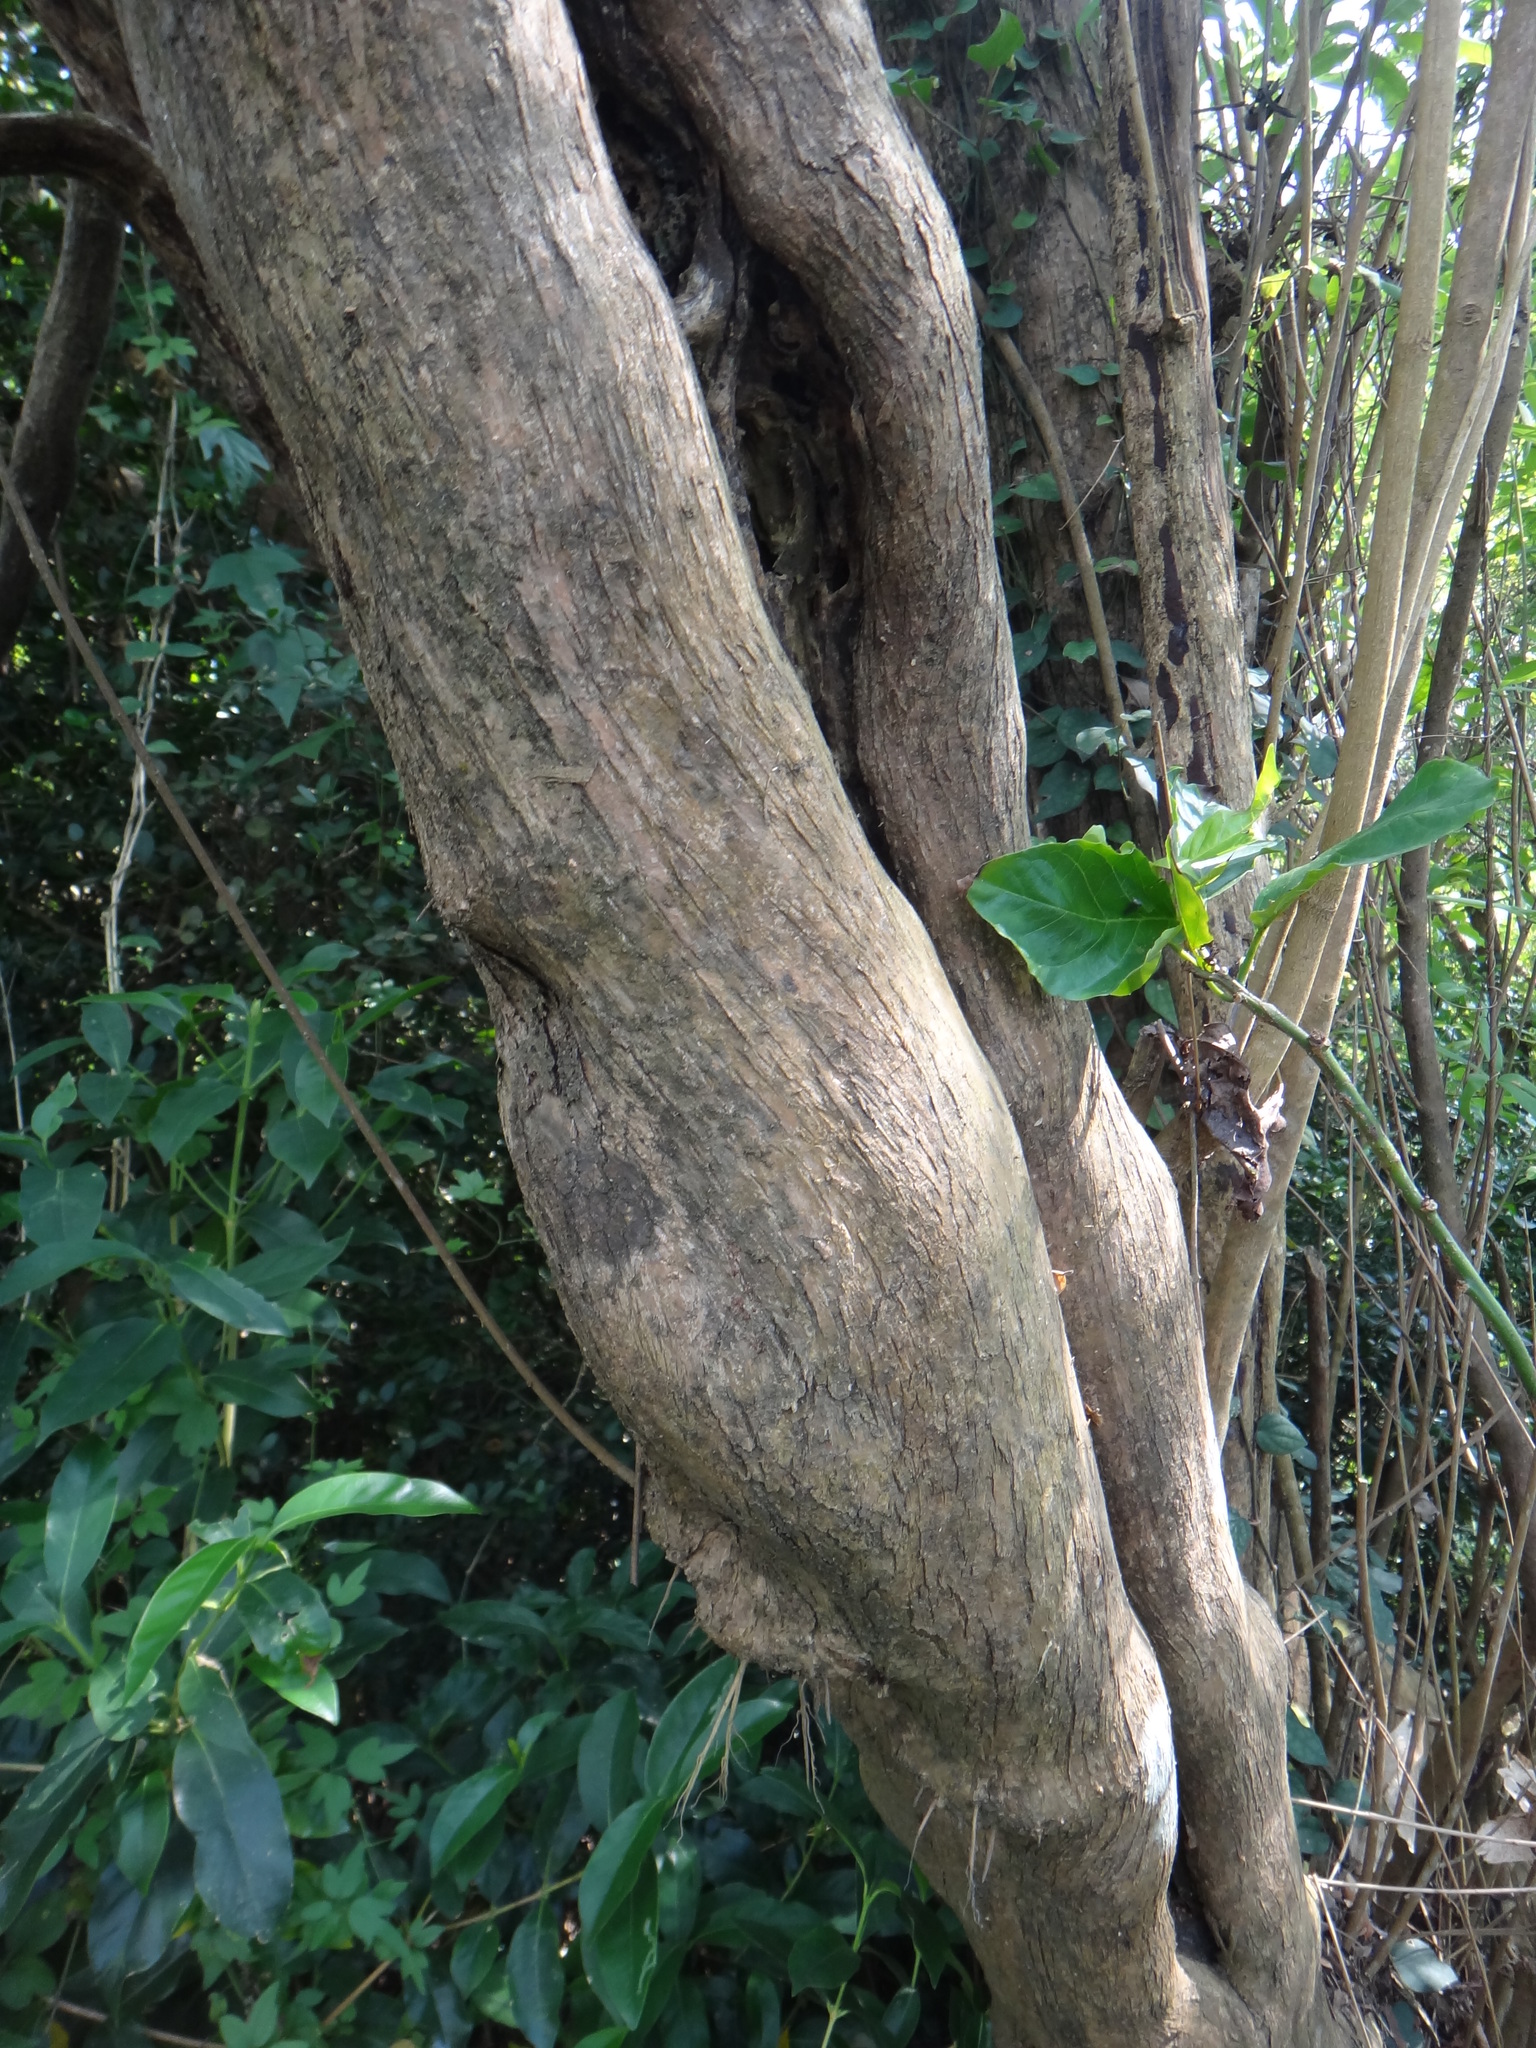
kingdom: Plantae
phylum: Tracheophyta
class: Magnoliopsida
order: Lamiales
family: Lamiaceae
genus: Vitex
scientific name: Vitex negundo
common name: Chinese chastetree
